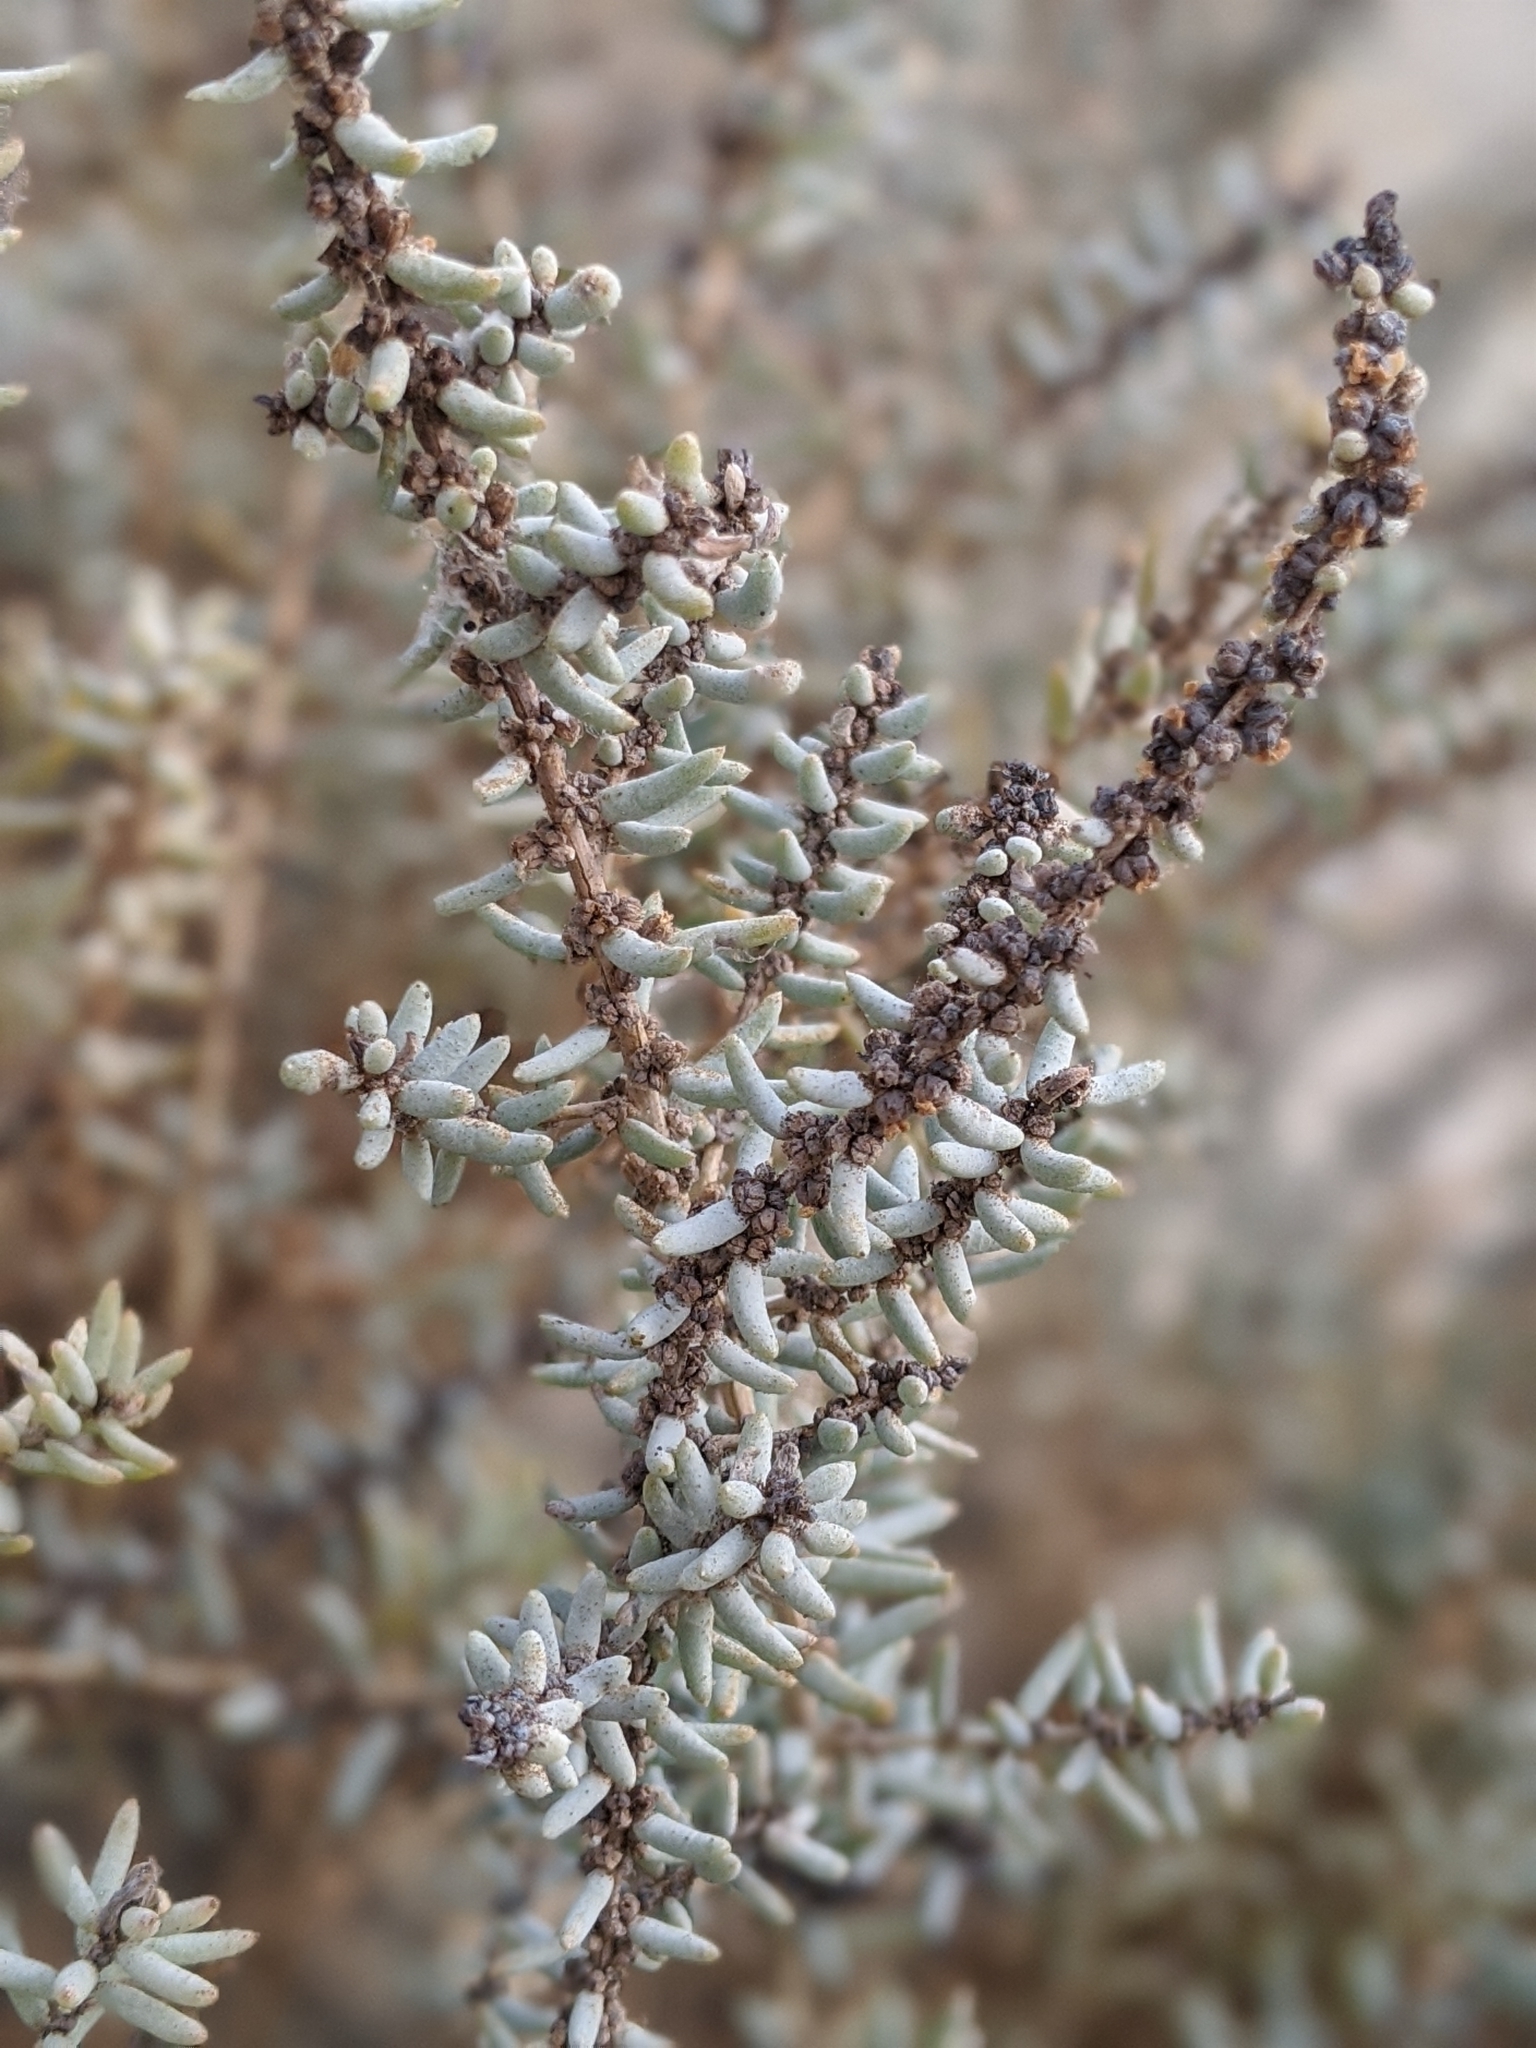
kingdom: Plantae
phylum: Tracheophyta
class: Magnoliopsida
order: Caryophyllales
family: Amaranthaceae
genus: Suaeda
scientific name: Suaeda nigra
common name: Bush seepweed
